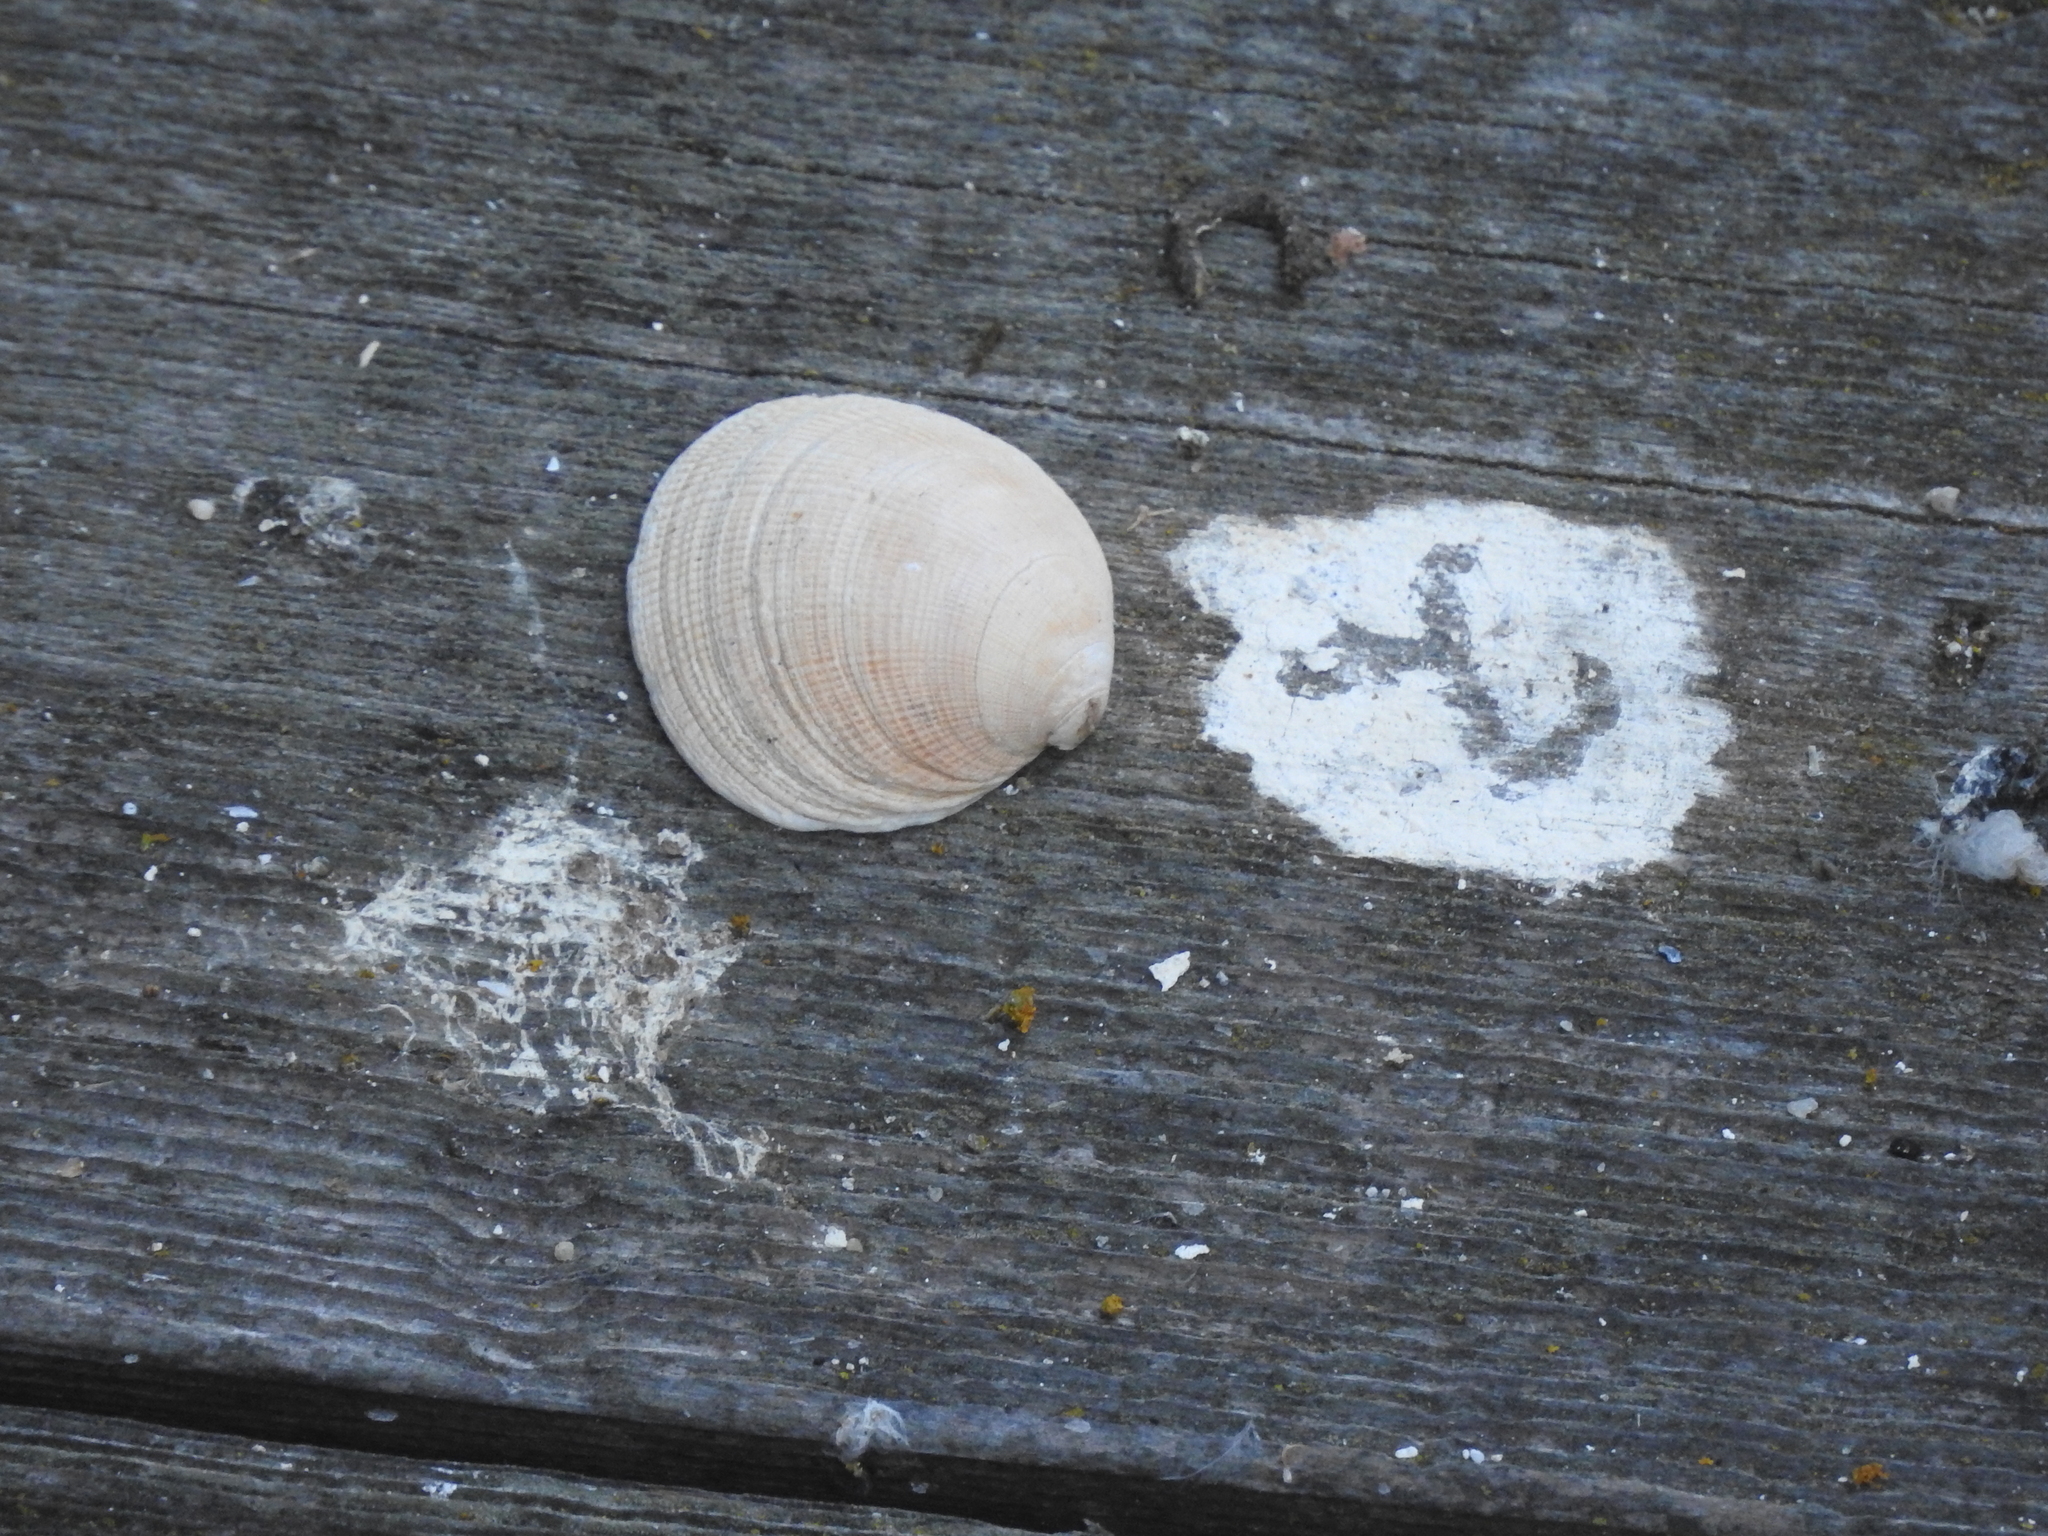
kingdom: Animalia
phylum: Mollusca
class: Bivalvia
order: Venerida
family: Veneridae
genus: Leukoma
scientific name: Leukoma staminea
